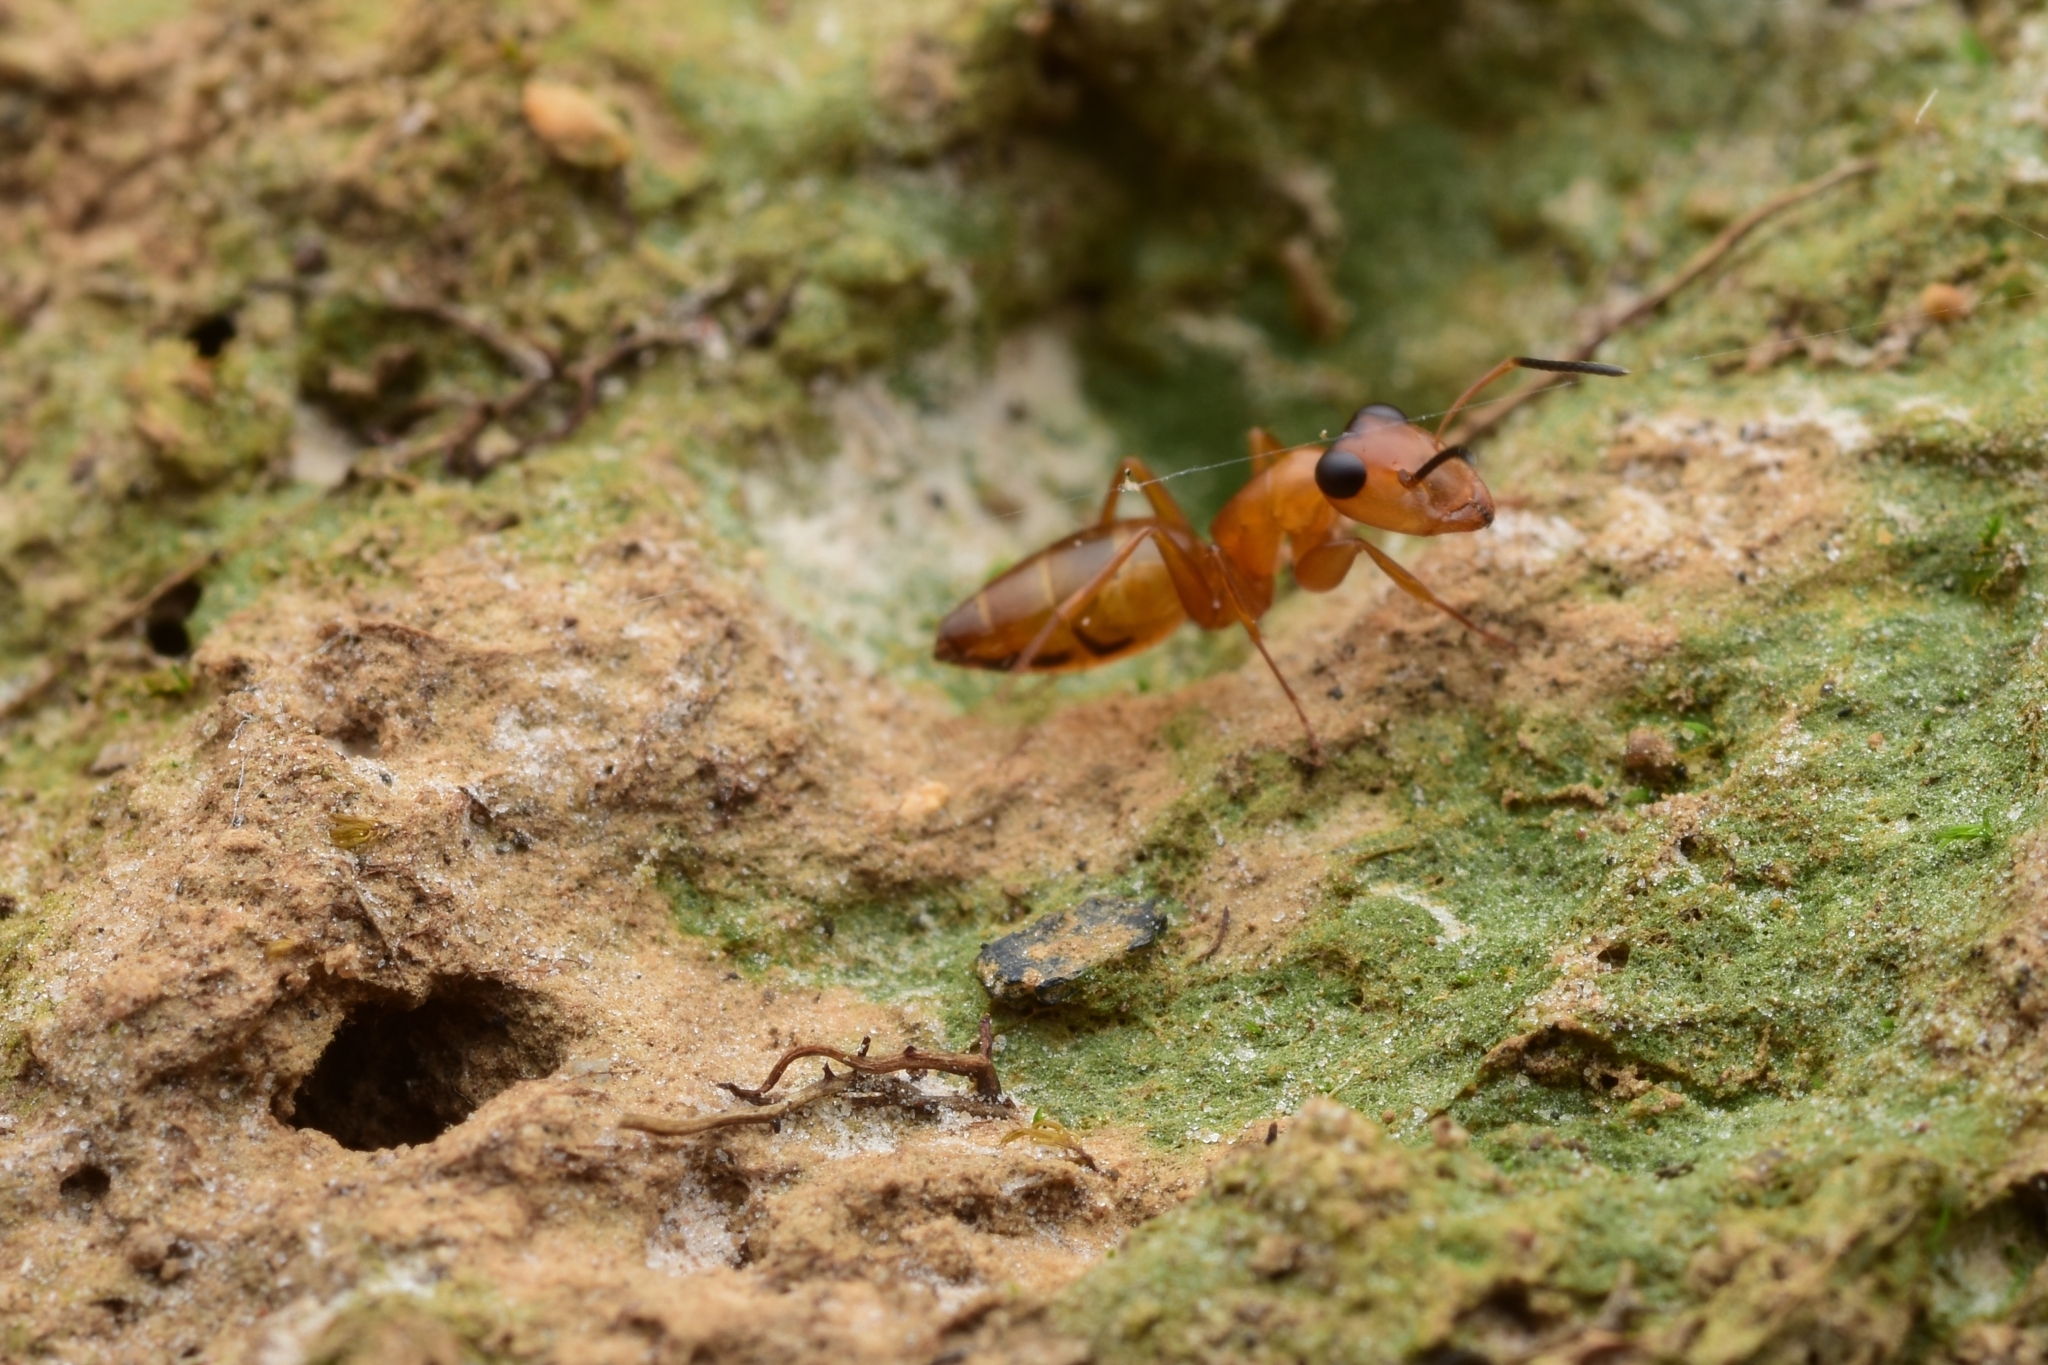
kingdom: Animalia
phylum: Arthropoda
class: Insecta
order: Hymenoptera
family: Formicidae
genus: Opisthopsis
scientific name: Opisthopsis jocosus
